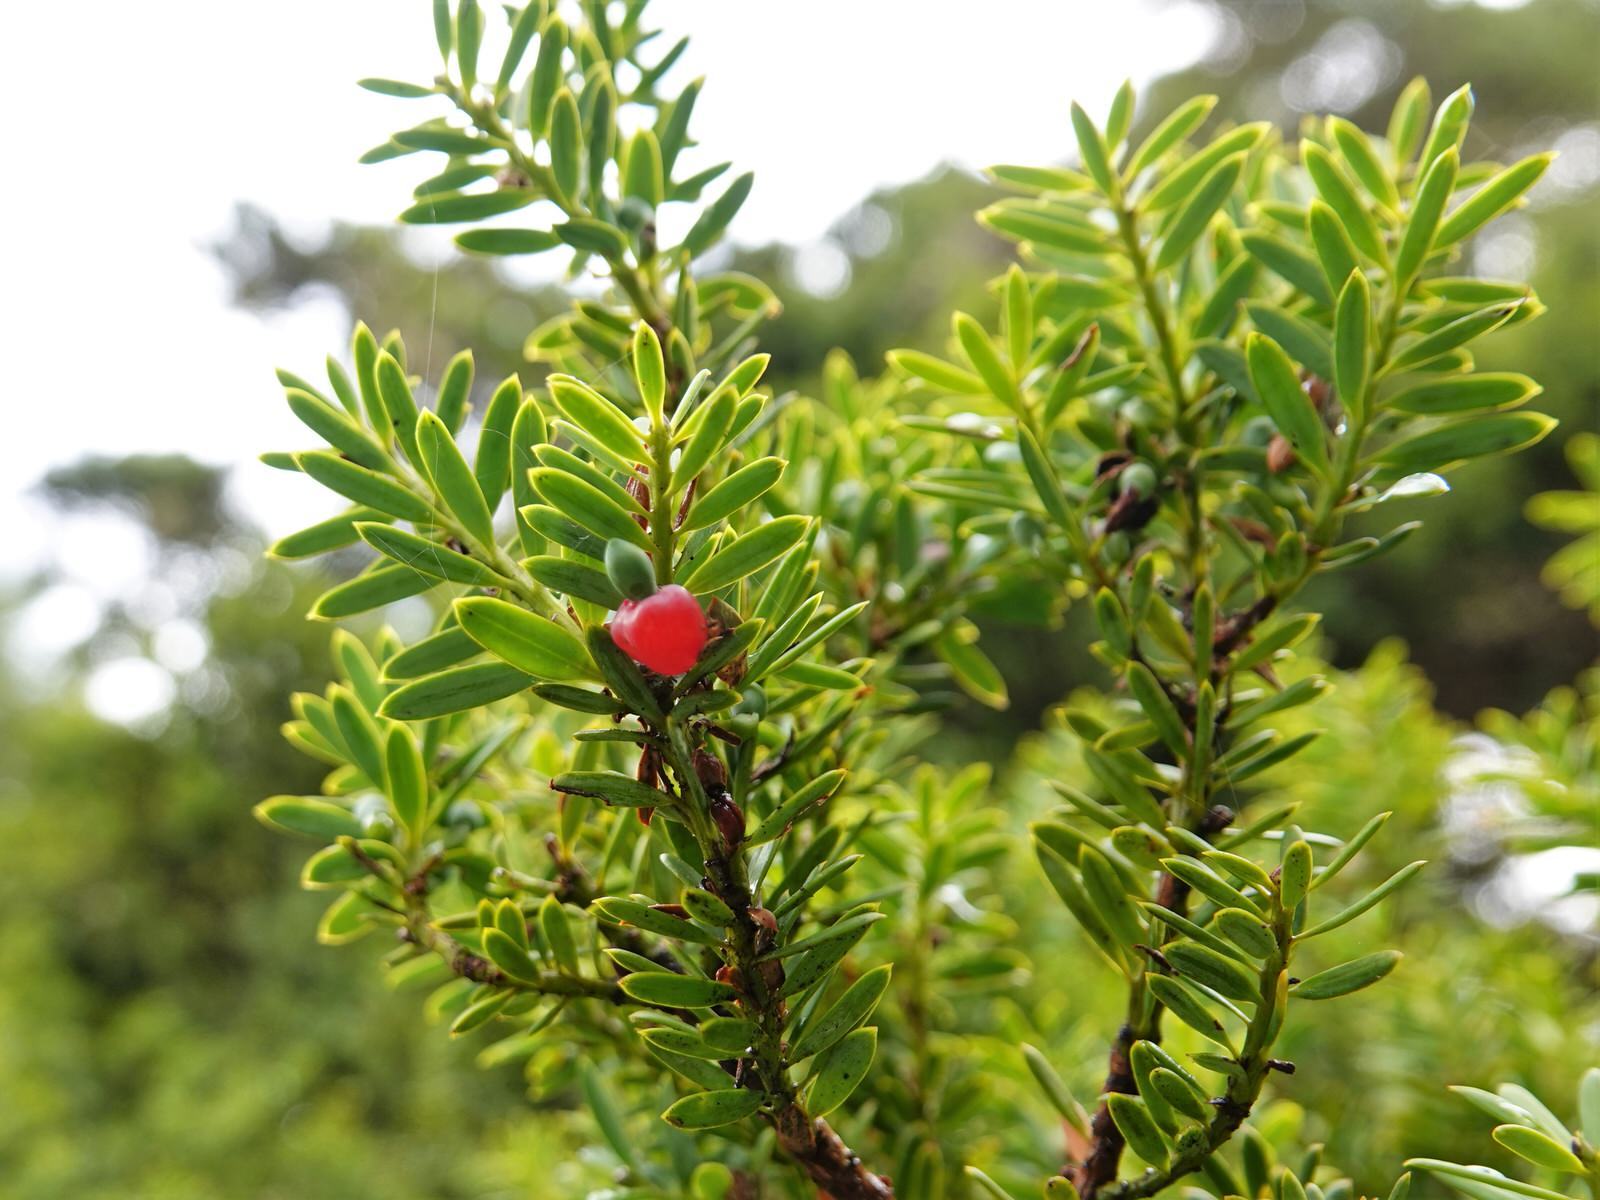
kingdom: Plantae
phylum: Tracheophyta
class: Pinopsida
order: Pinales
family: Podocarpaceae
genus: Podocarpus
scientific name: Podocarpus totara
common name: Totara
